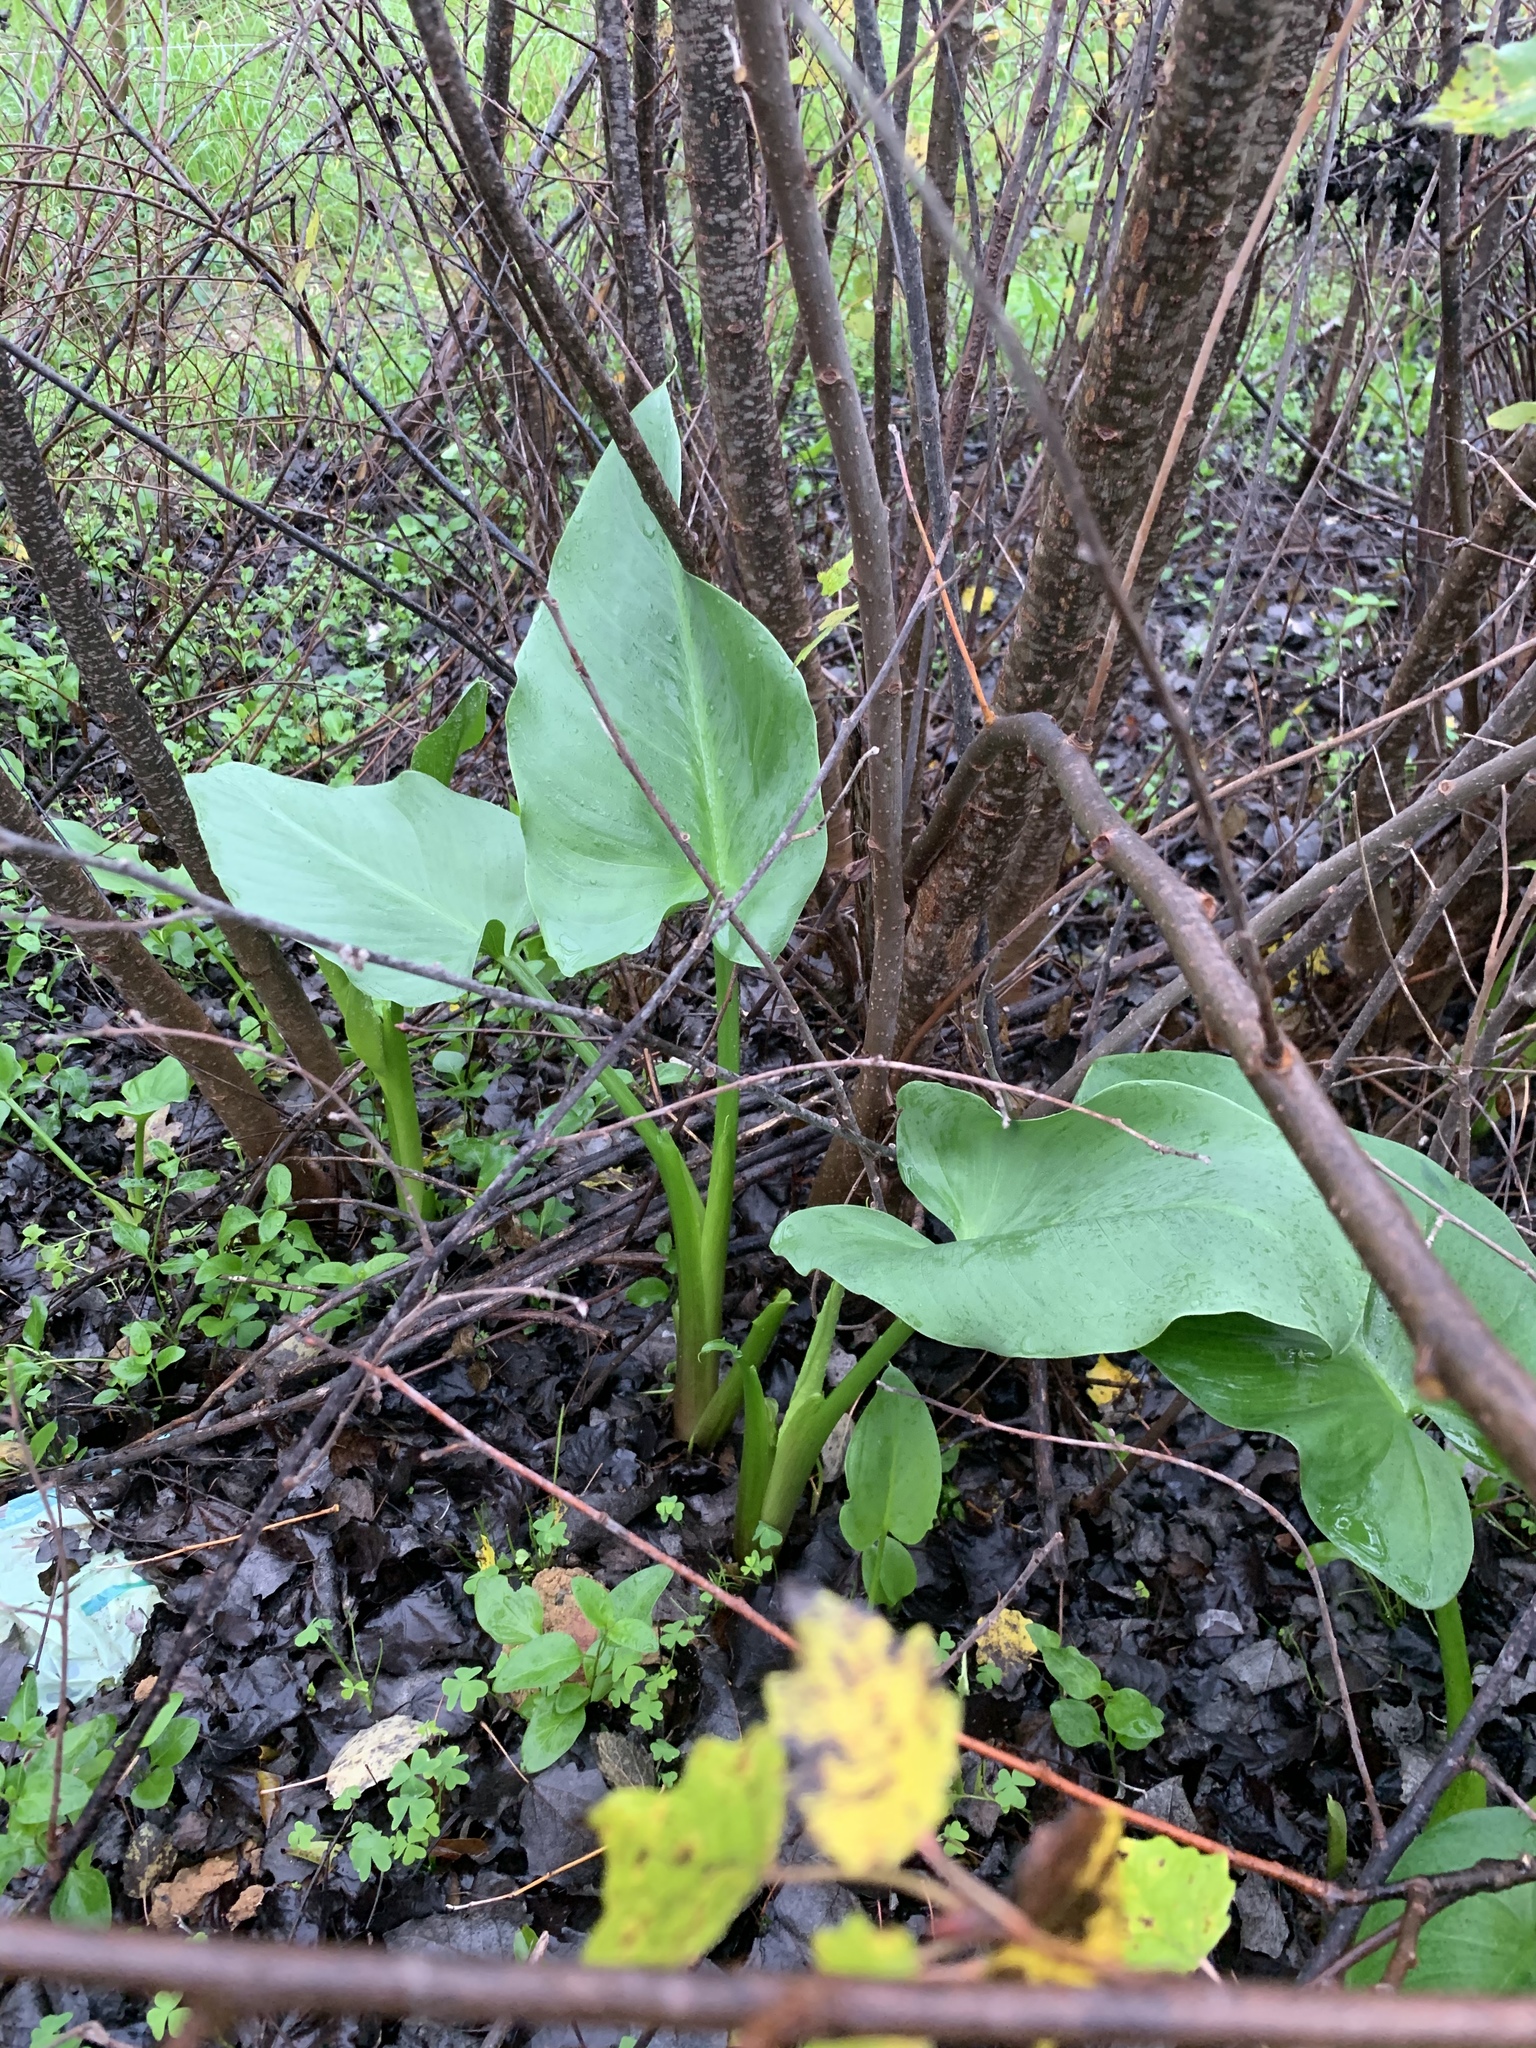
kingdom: Plantae
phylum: Tracheophyta
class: Liliopsida
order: Alismatales
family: Araceae
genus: Zantedeschia
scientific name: Zantedeschia aethiopica
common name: Altar-lily
